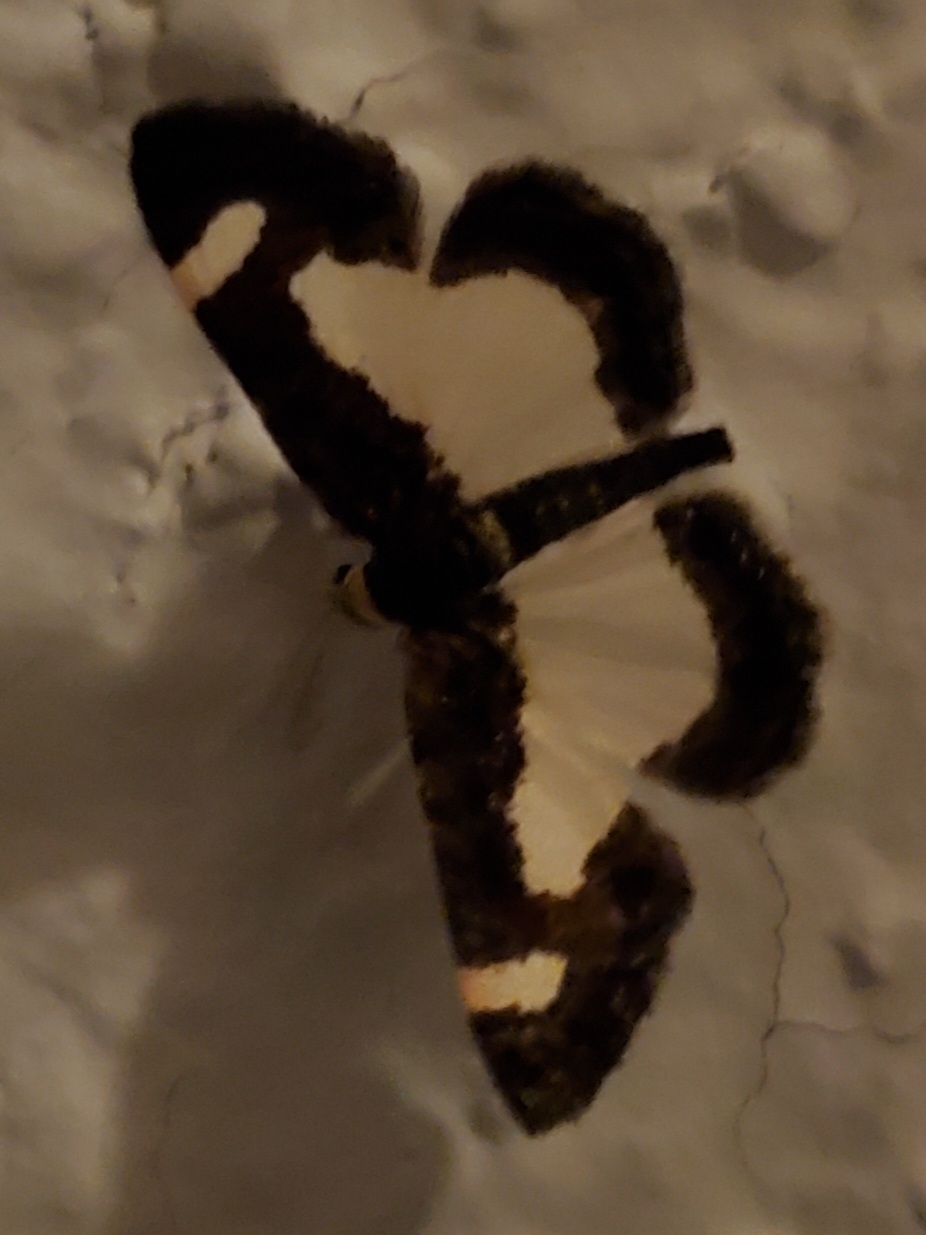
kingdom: Animalia
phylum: Arthropoda
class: Insecta
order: Lepidoptera
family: Geometridae
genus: Heliomata
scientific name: Heliomata cycladata
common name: Common spring moth
